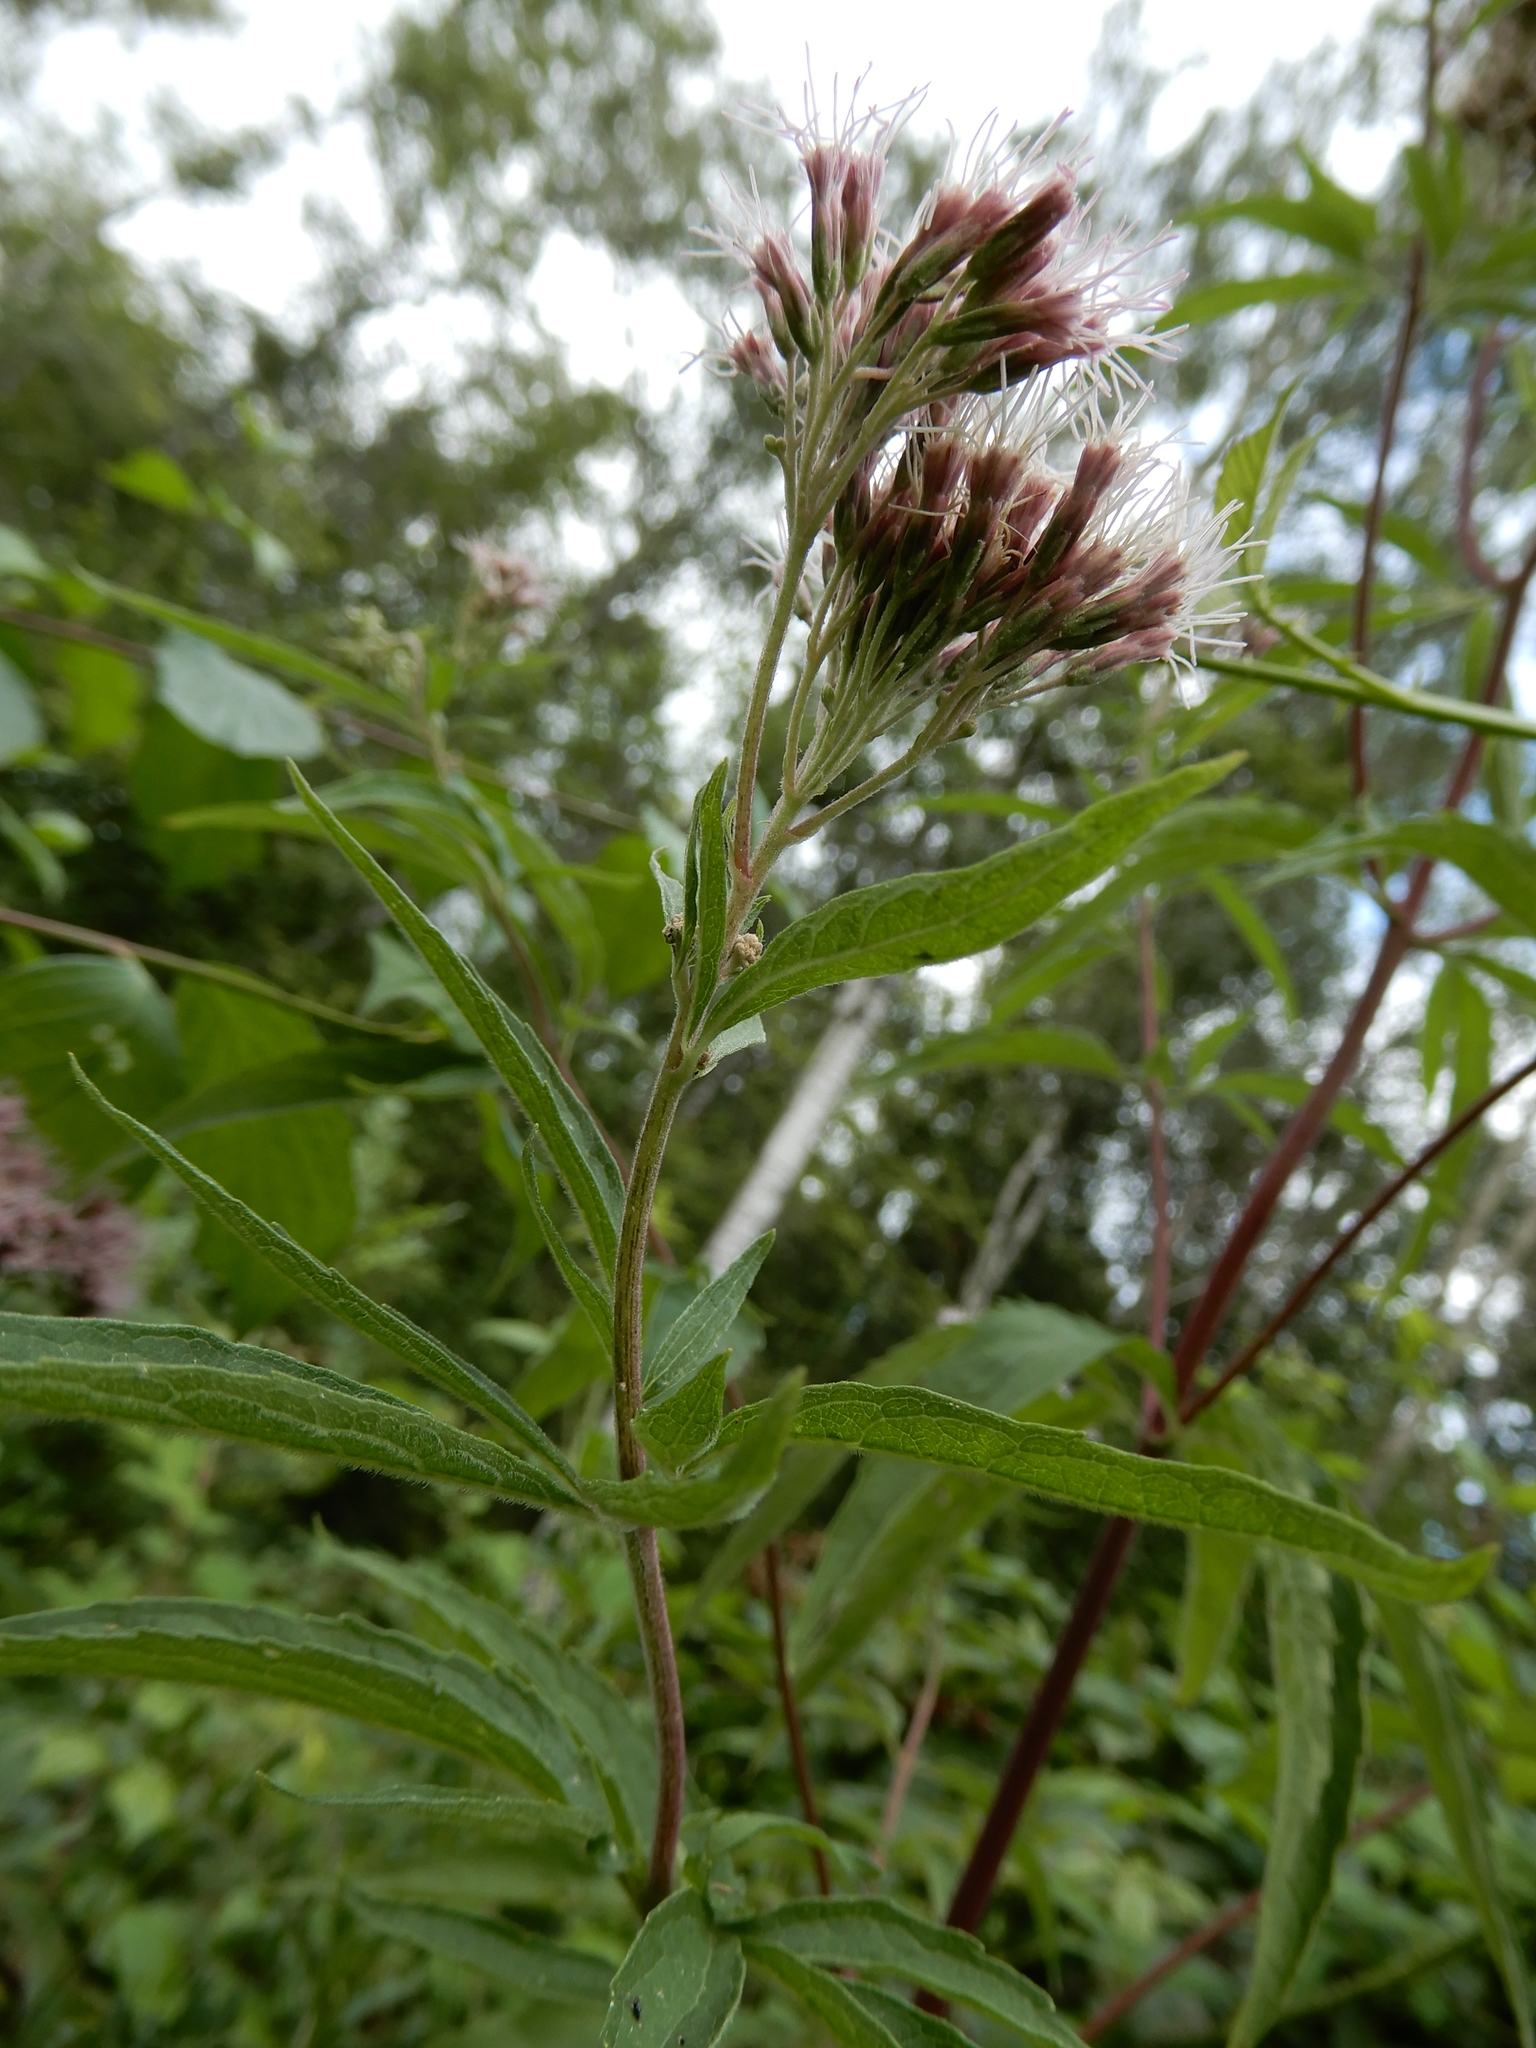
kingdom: Plantae
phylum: Tracheophyta
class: Magnoliopsida
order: Asterales
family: Asteraceae
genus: Eupatorium
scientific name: Eupatorium cannabinum
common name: Hemp-agrimony
